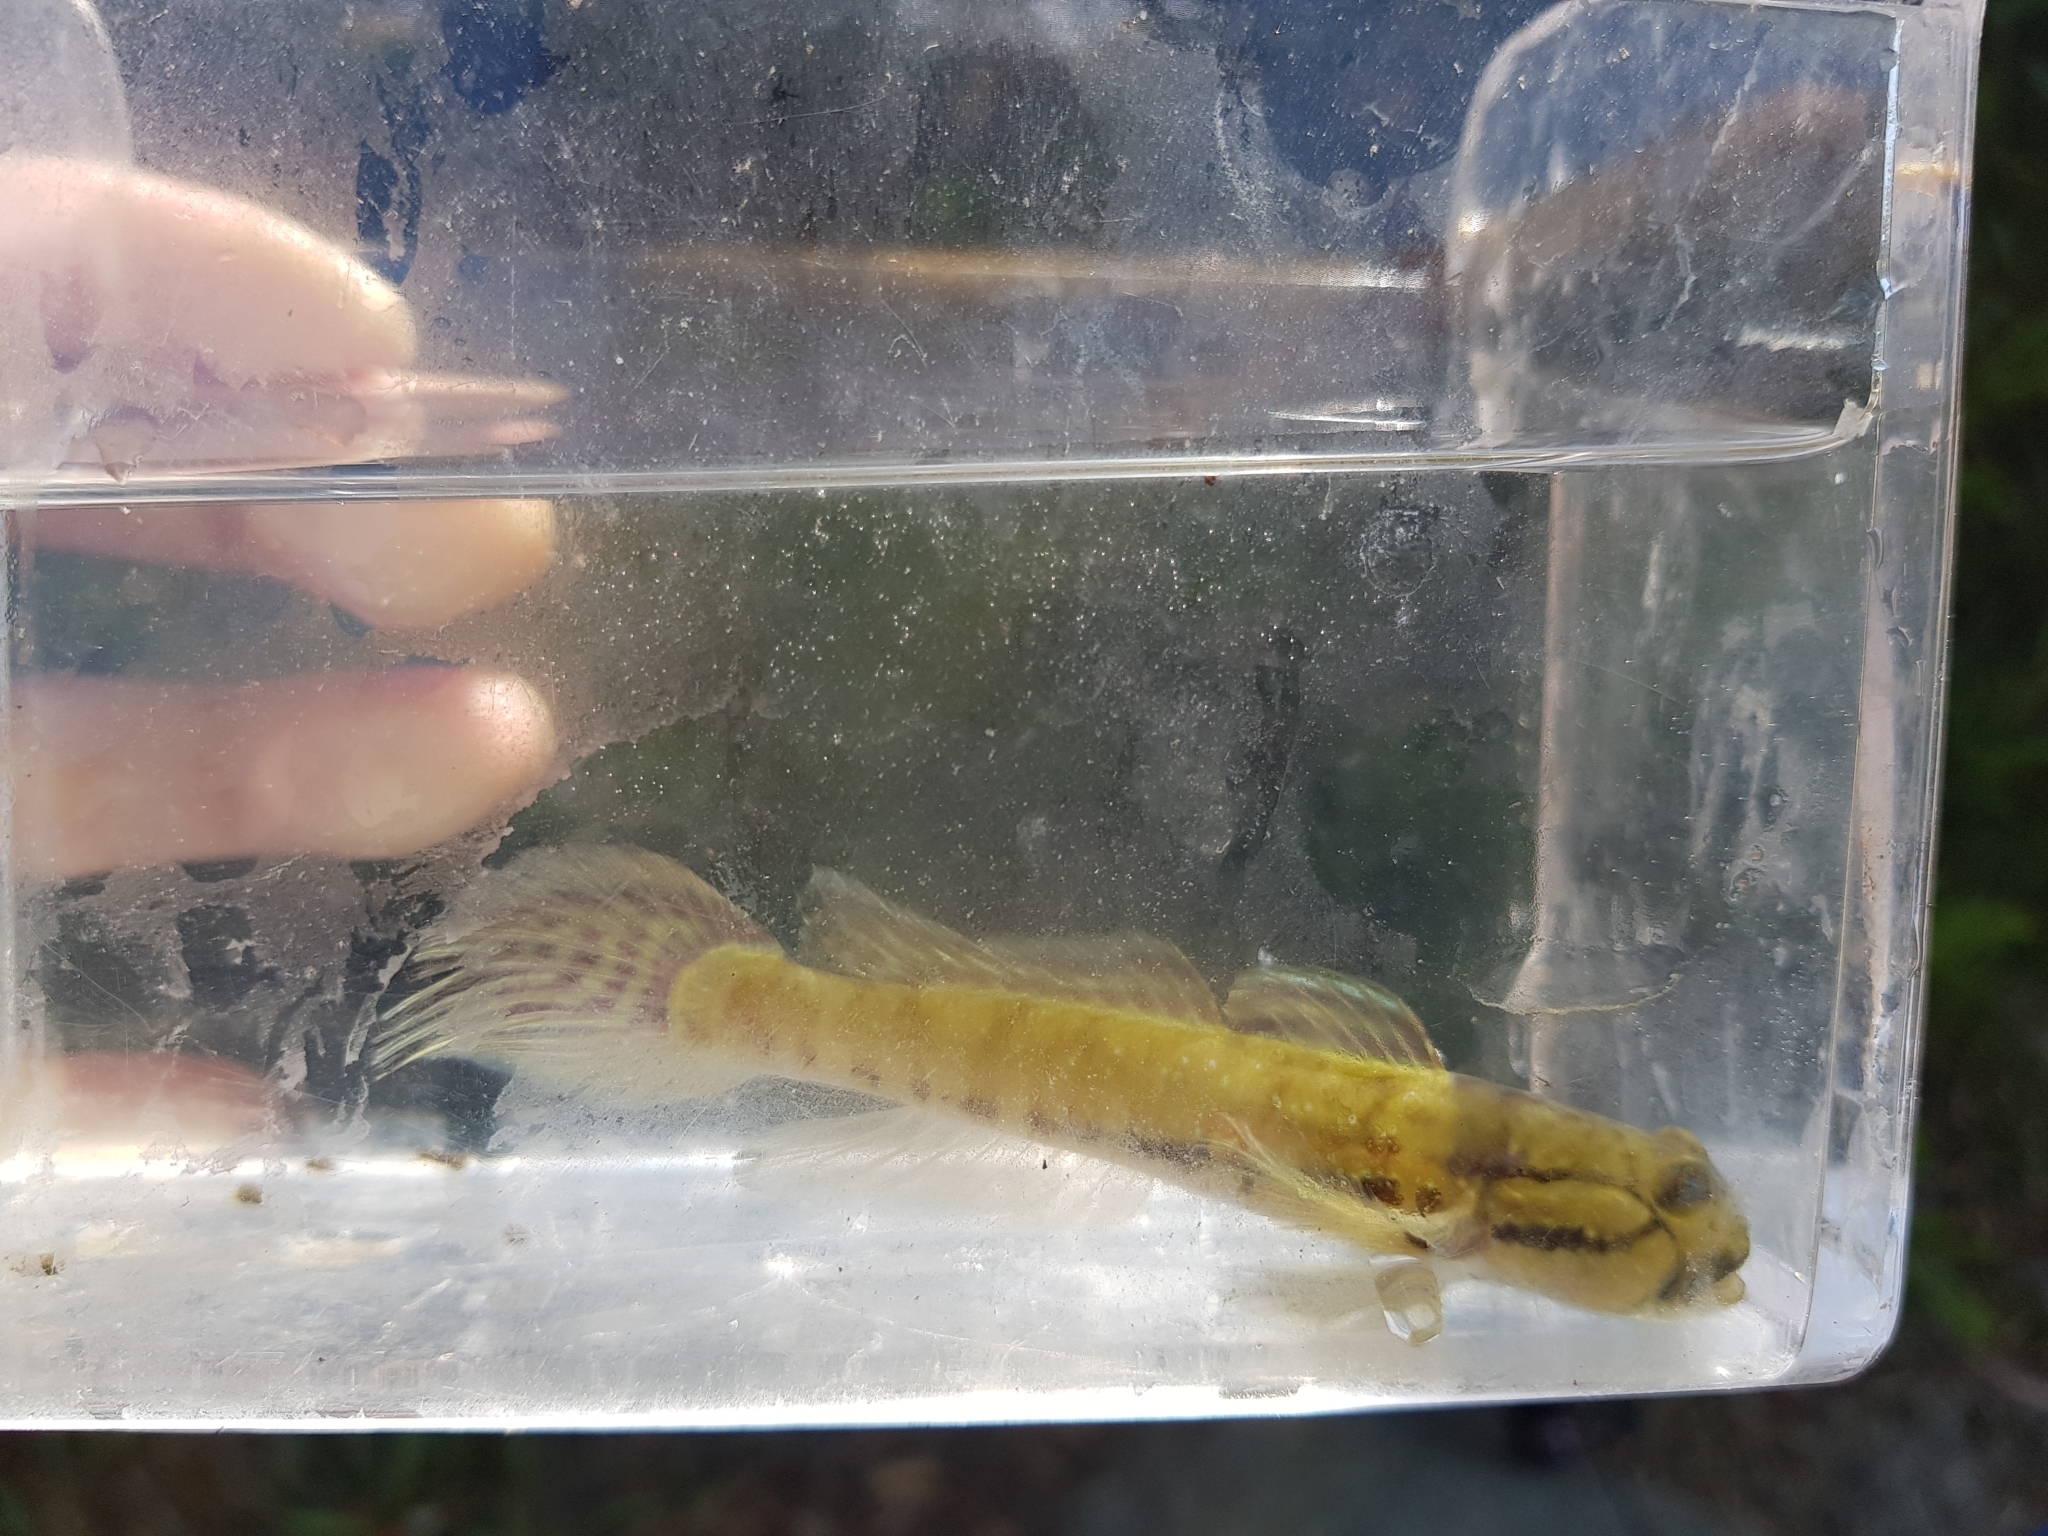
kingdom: Animalia
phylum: Chordata
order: Perciformes
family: Gobiidae
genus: Arenigobius
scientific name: Arenigobius bifrenatus
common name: Bridled goby
